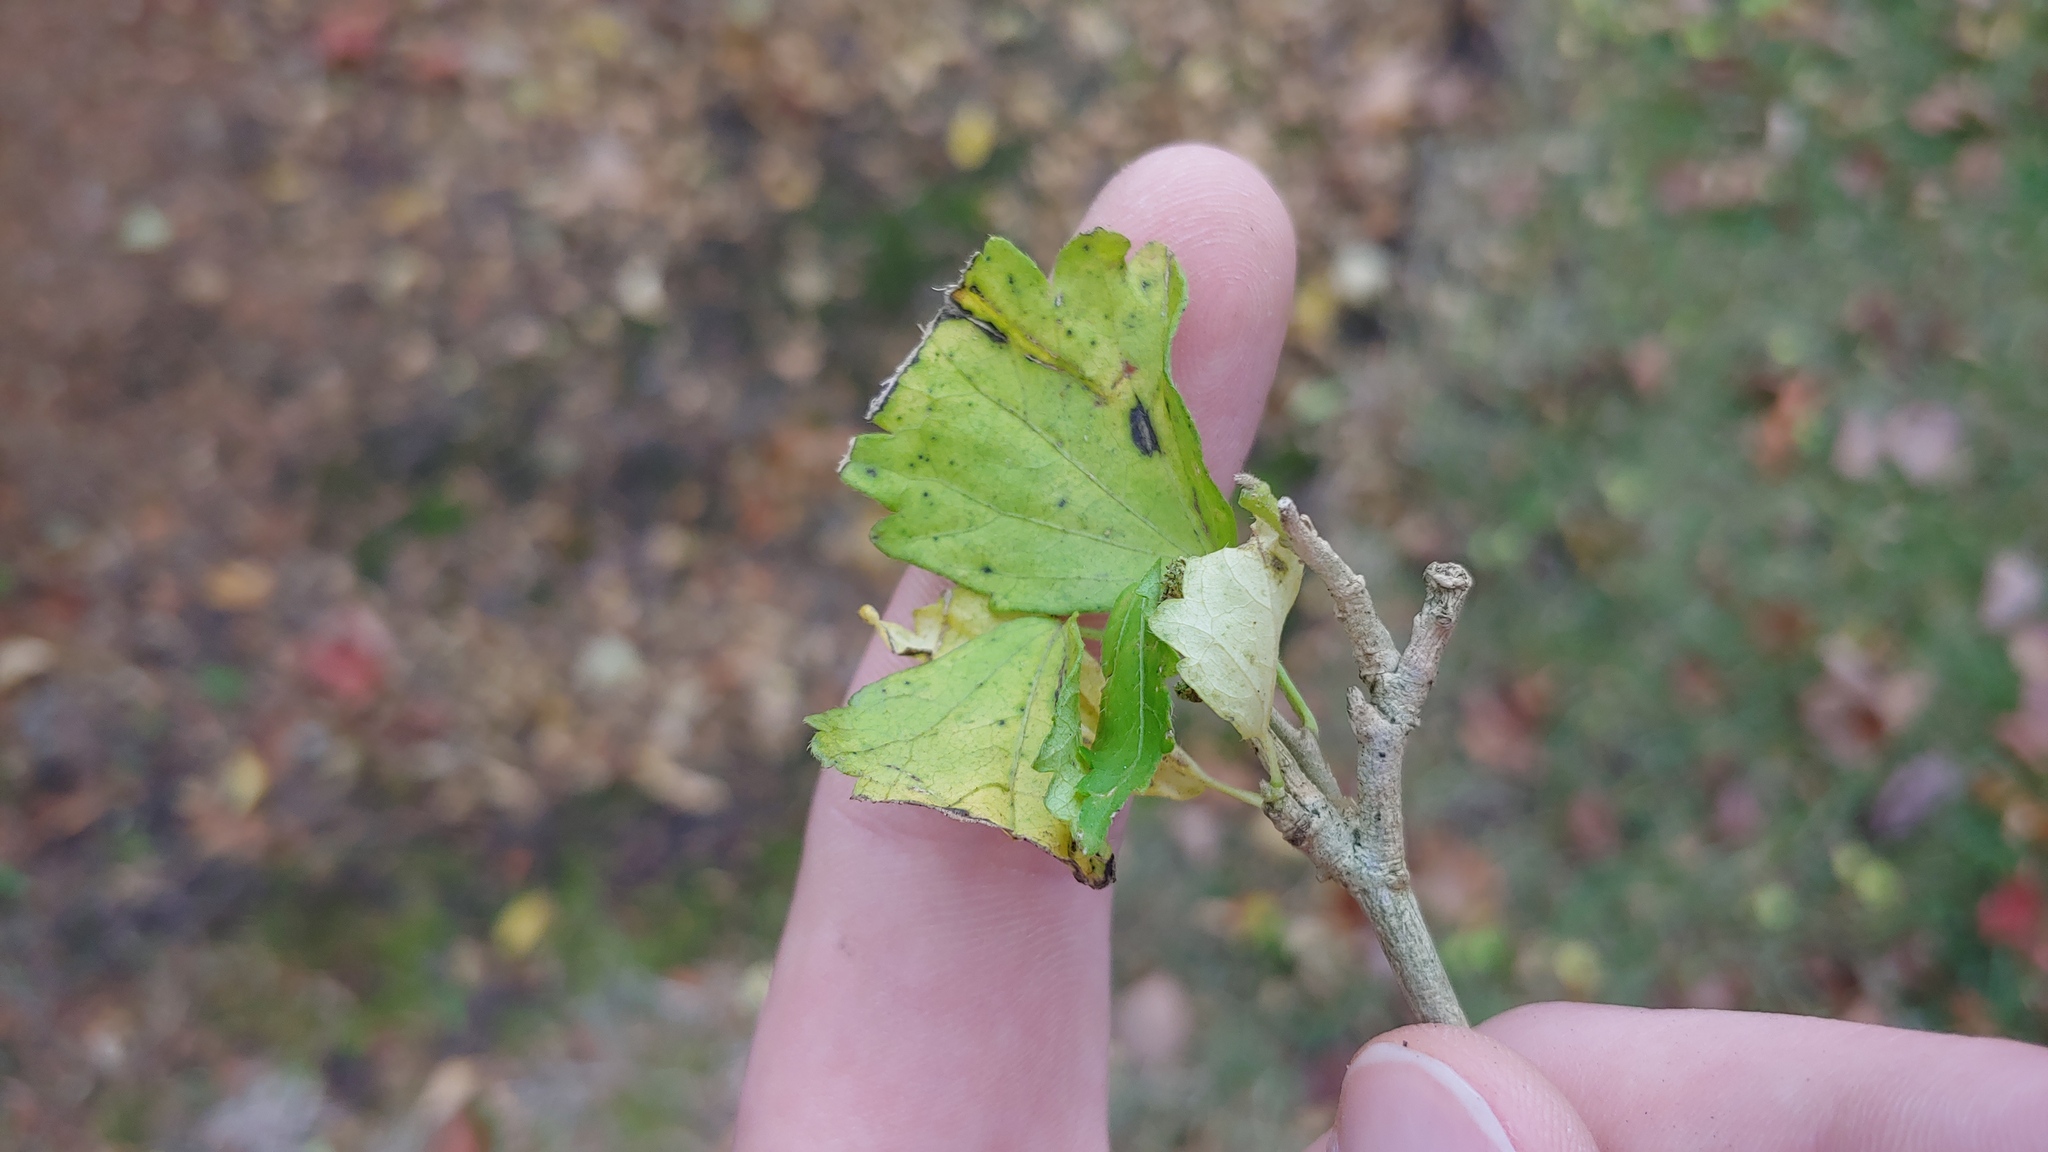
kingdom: Plantae
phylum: Tracheophyta
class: Magnoliopsida
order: Malvales
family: Malvaceae
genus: Hibiscus
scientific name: Hibiscus syriacus
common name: Syrian ketmia
